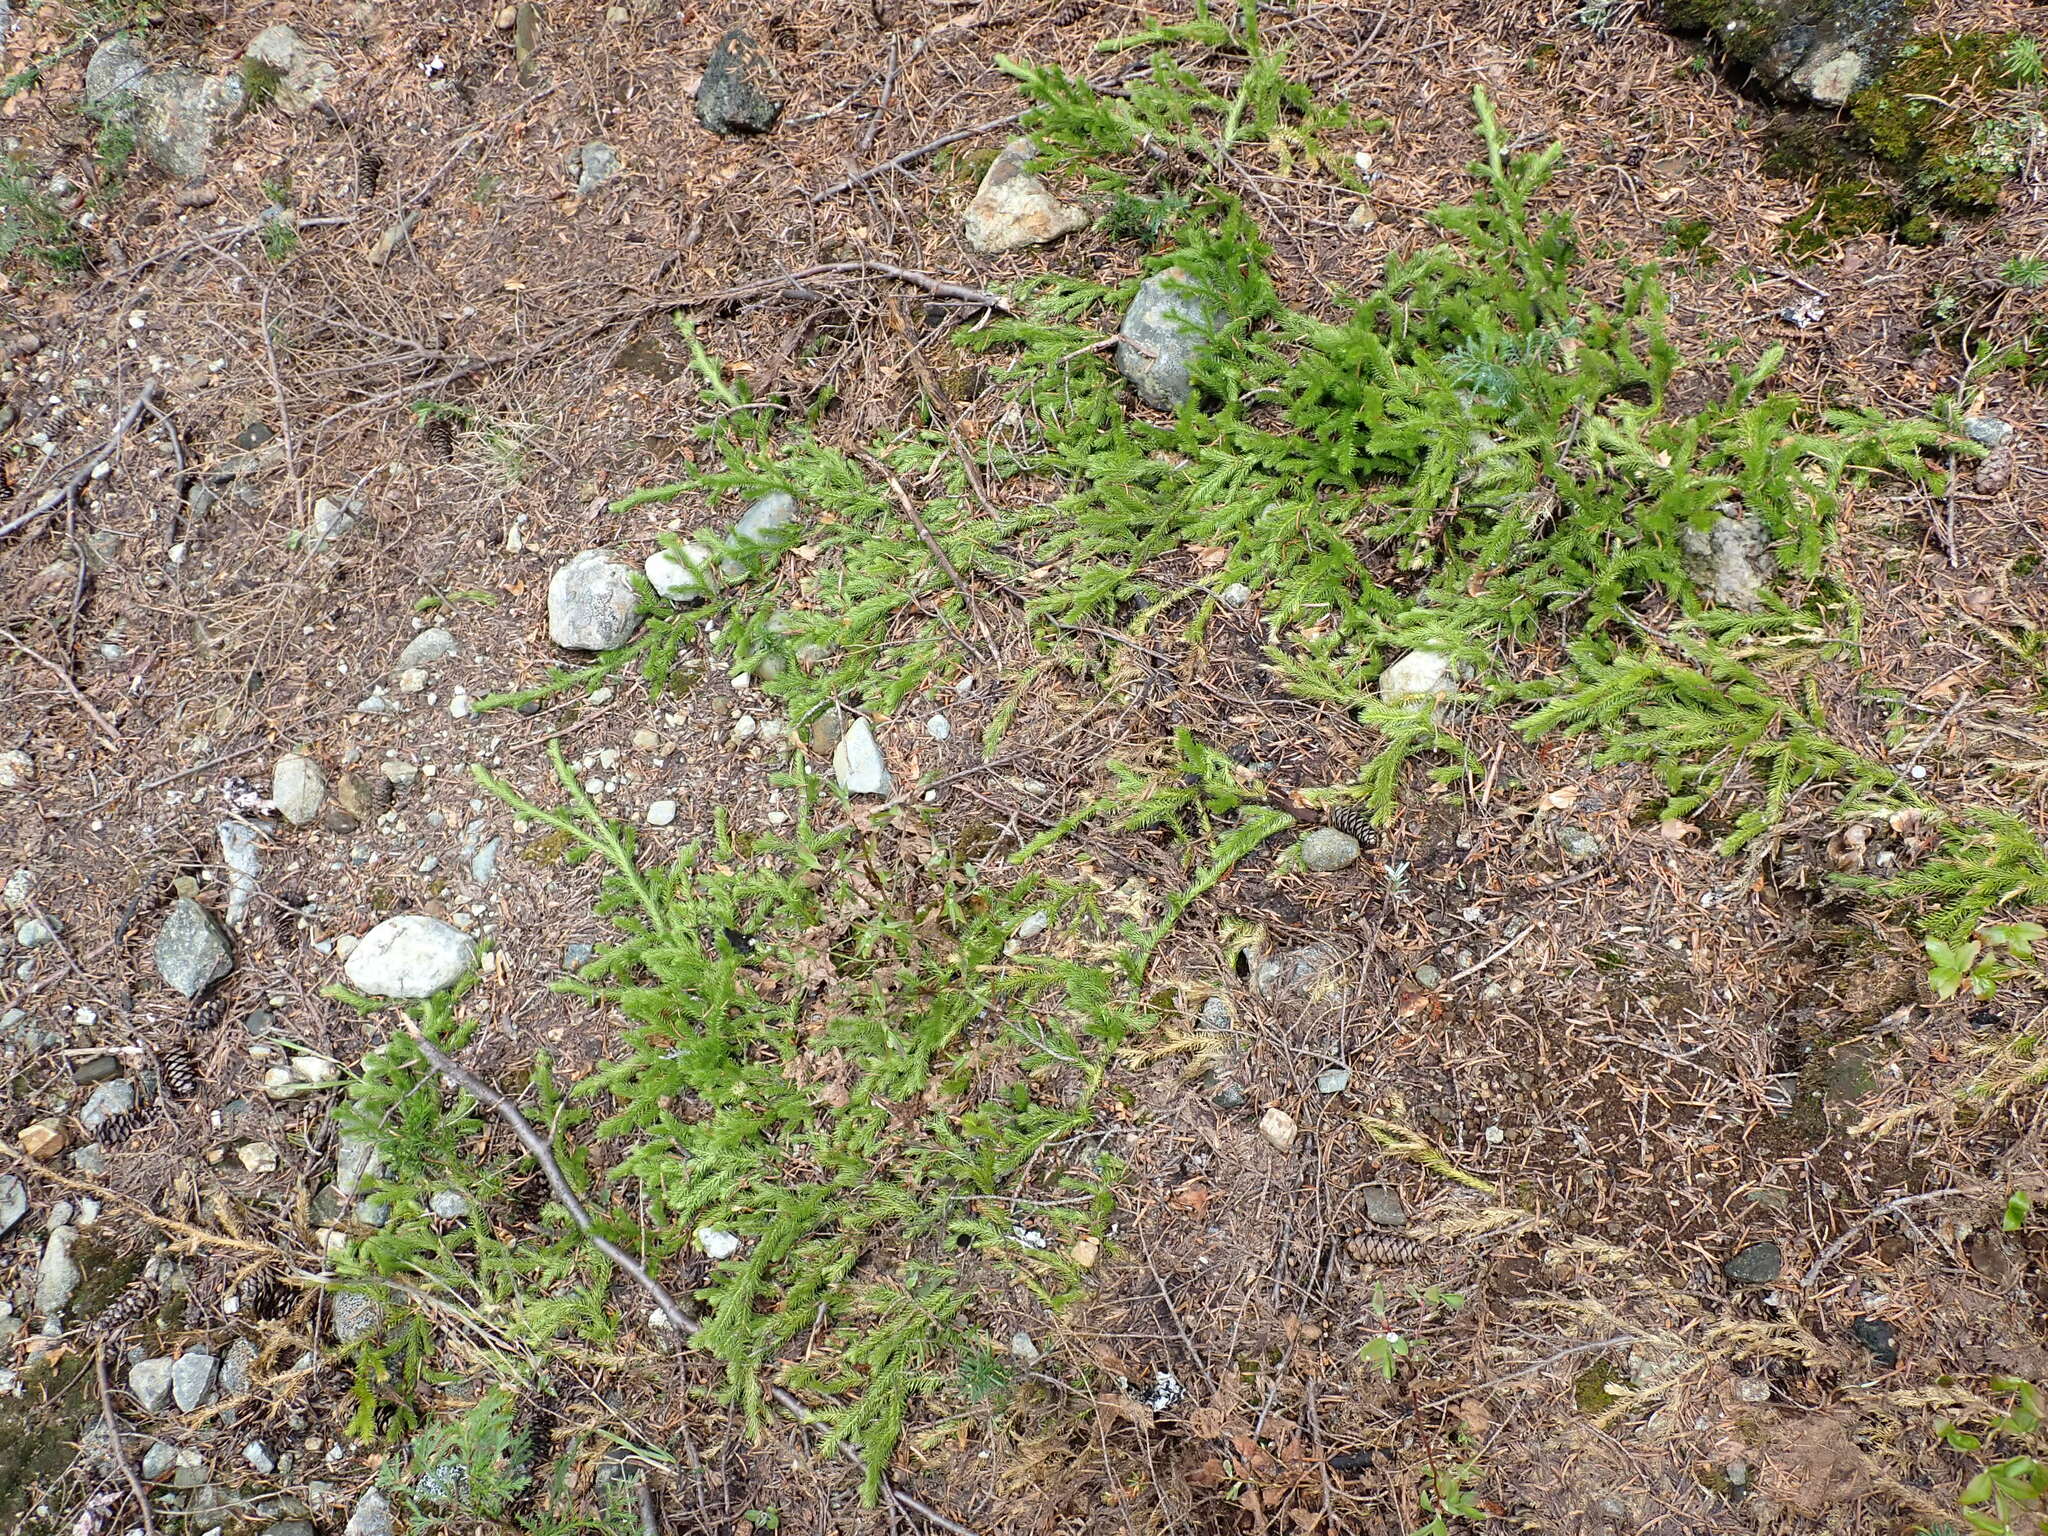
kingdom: Plantae
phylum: Tracheophyta
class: Lycopodiopsida
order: Lycopodiales
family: Lycopodiaceae
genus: Lycopodium
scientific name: Lycopodium clavatum
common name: Stag's-horn clubmoss
